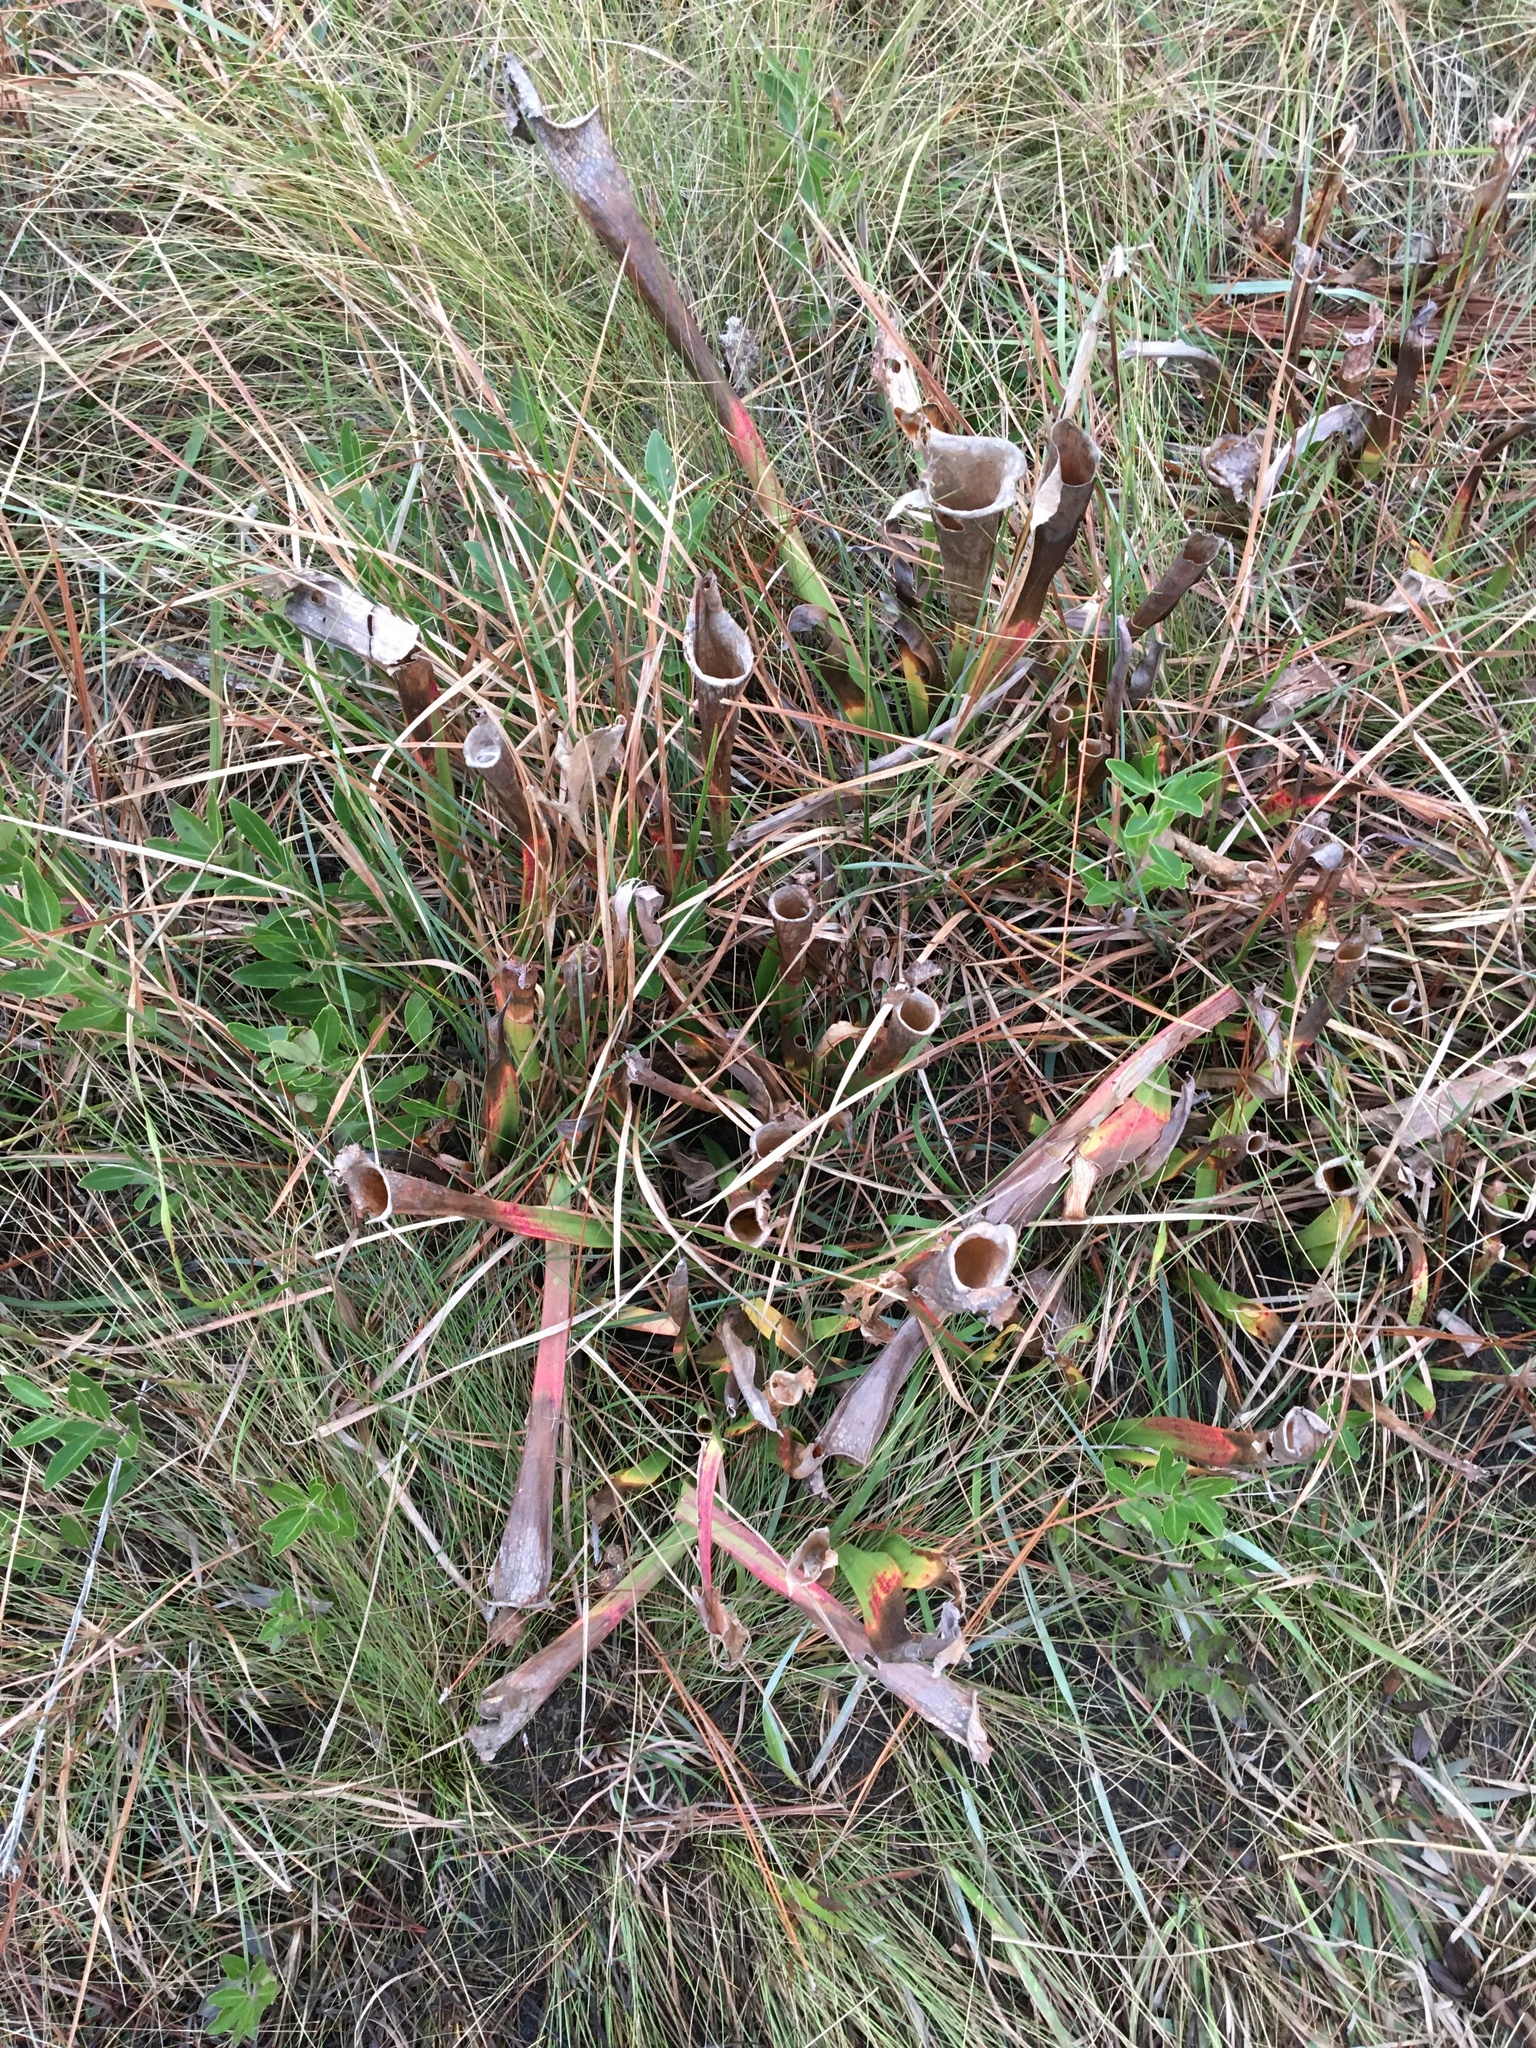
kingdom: Plantae
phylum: Tracheophyta
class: Magnoliopsida
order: Ericales
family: Sarraceniaceae
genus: Sarracenia
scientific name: Sarracenia leucophylla
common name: Purple trumpetleaf
